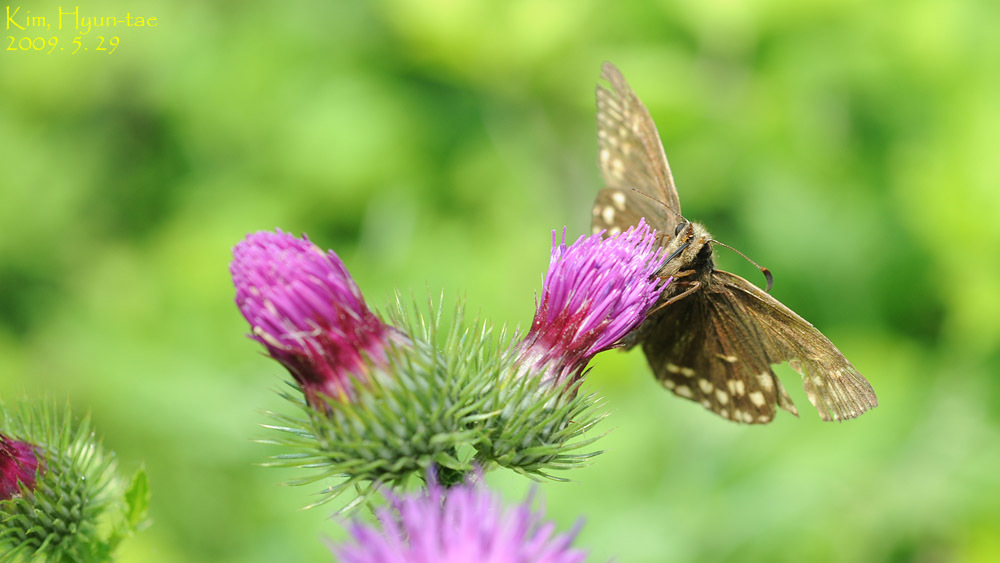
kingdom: Animalia
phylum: Arthropoda
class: Insecta
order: Lepidoptera
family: Hesperiidae
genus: Erynnis
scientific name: Erynnis montanus
